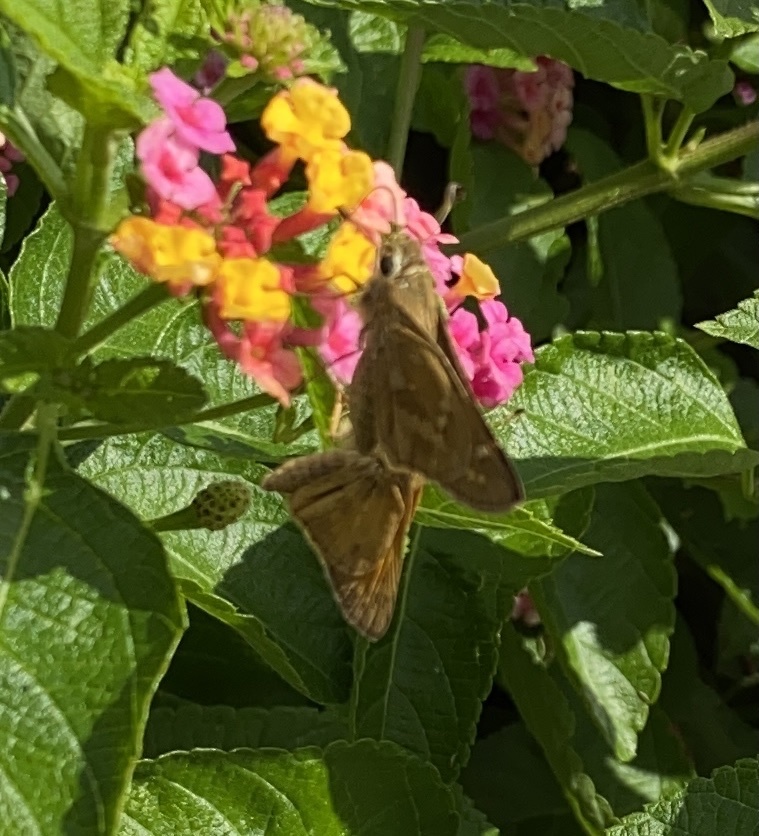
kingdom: Animalia
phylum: Arthropoda
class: Insecta
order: Lepidoptera
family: Hesperiidae
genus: Atalopedes
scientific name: Atalopedes
